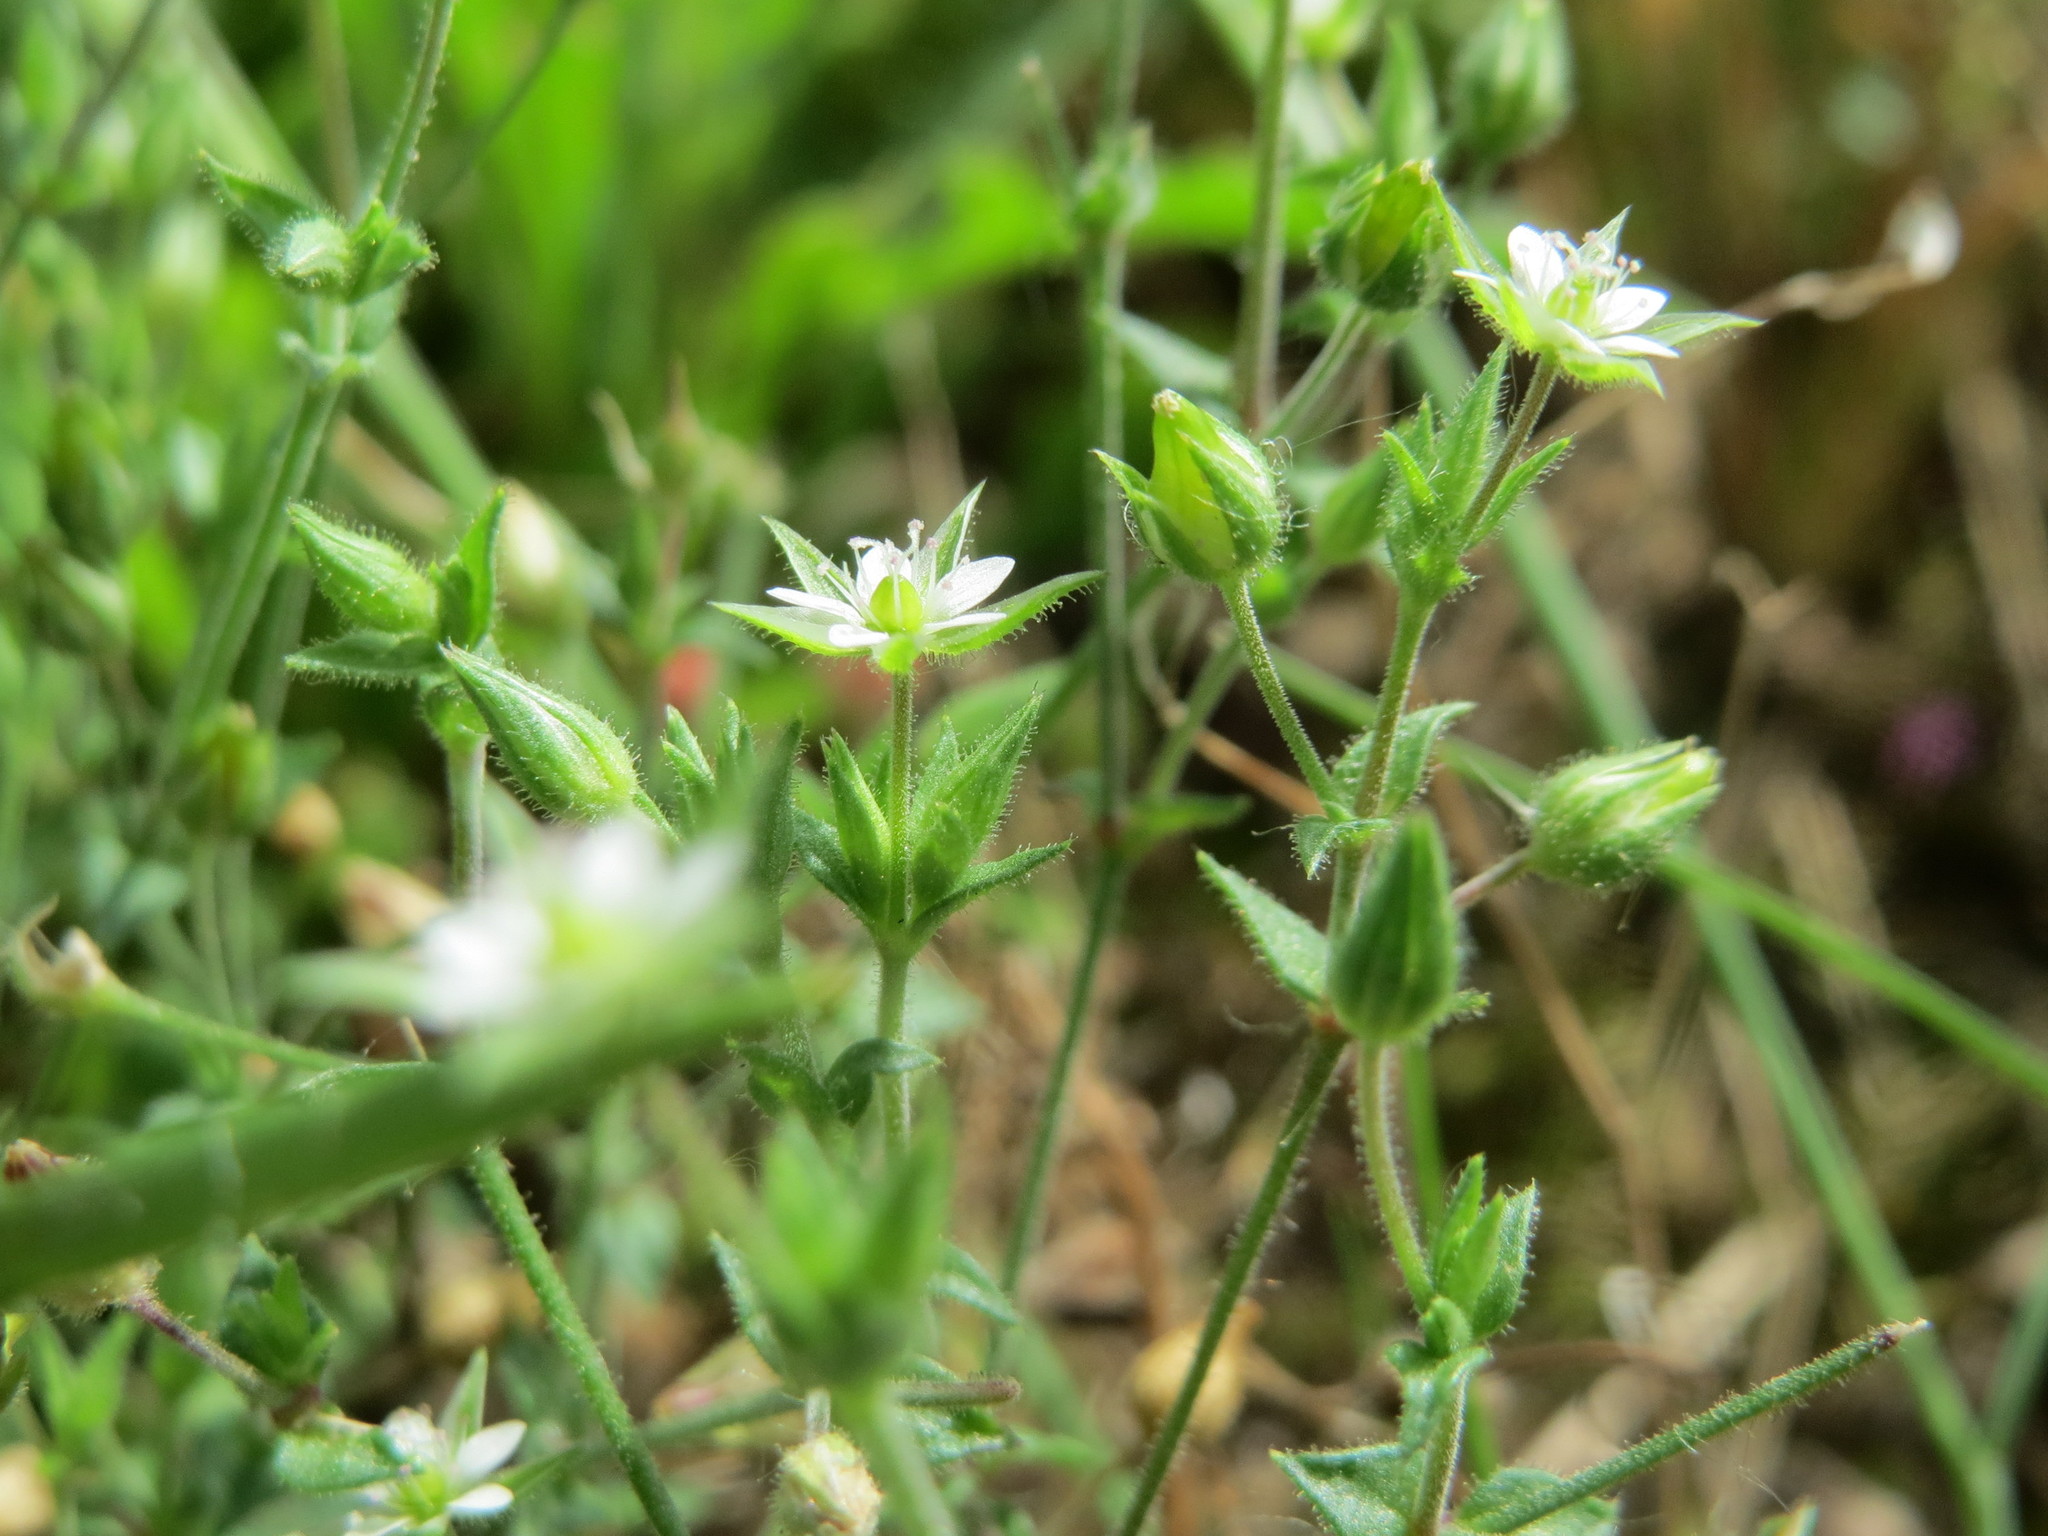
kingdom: Plantae
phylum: Tracheophyta
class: Magnoliopsida
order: Caryophyllales
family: Caryophyllaceae
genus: Arenaria
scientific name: Arenaria serpyllifolia
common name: Thyme-leaved sandwort
